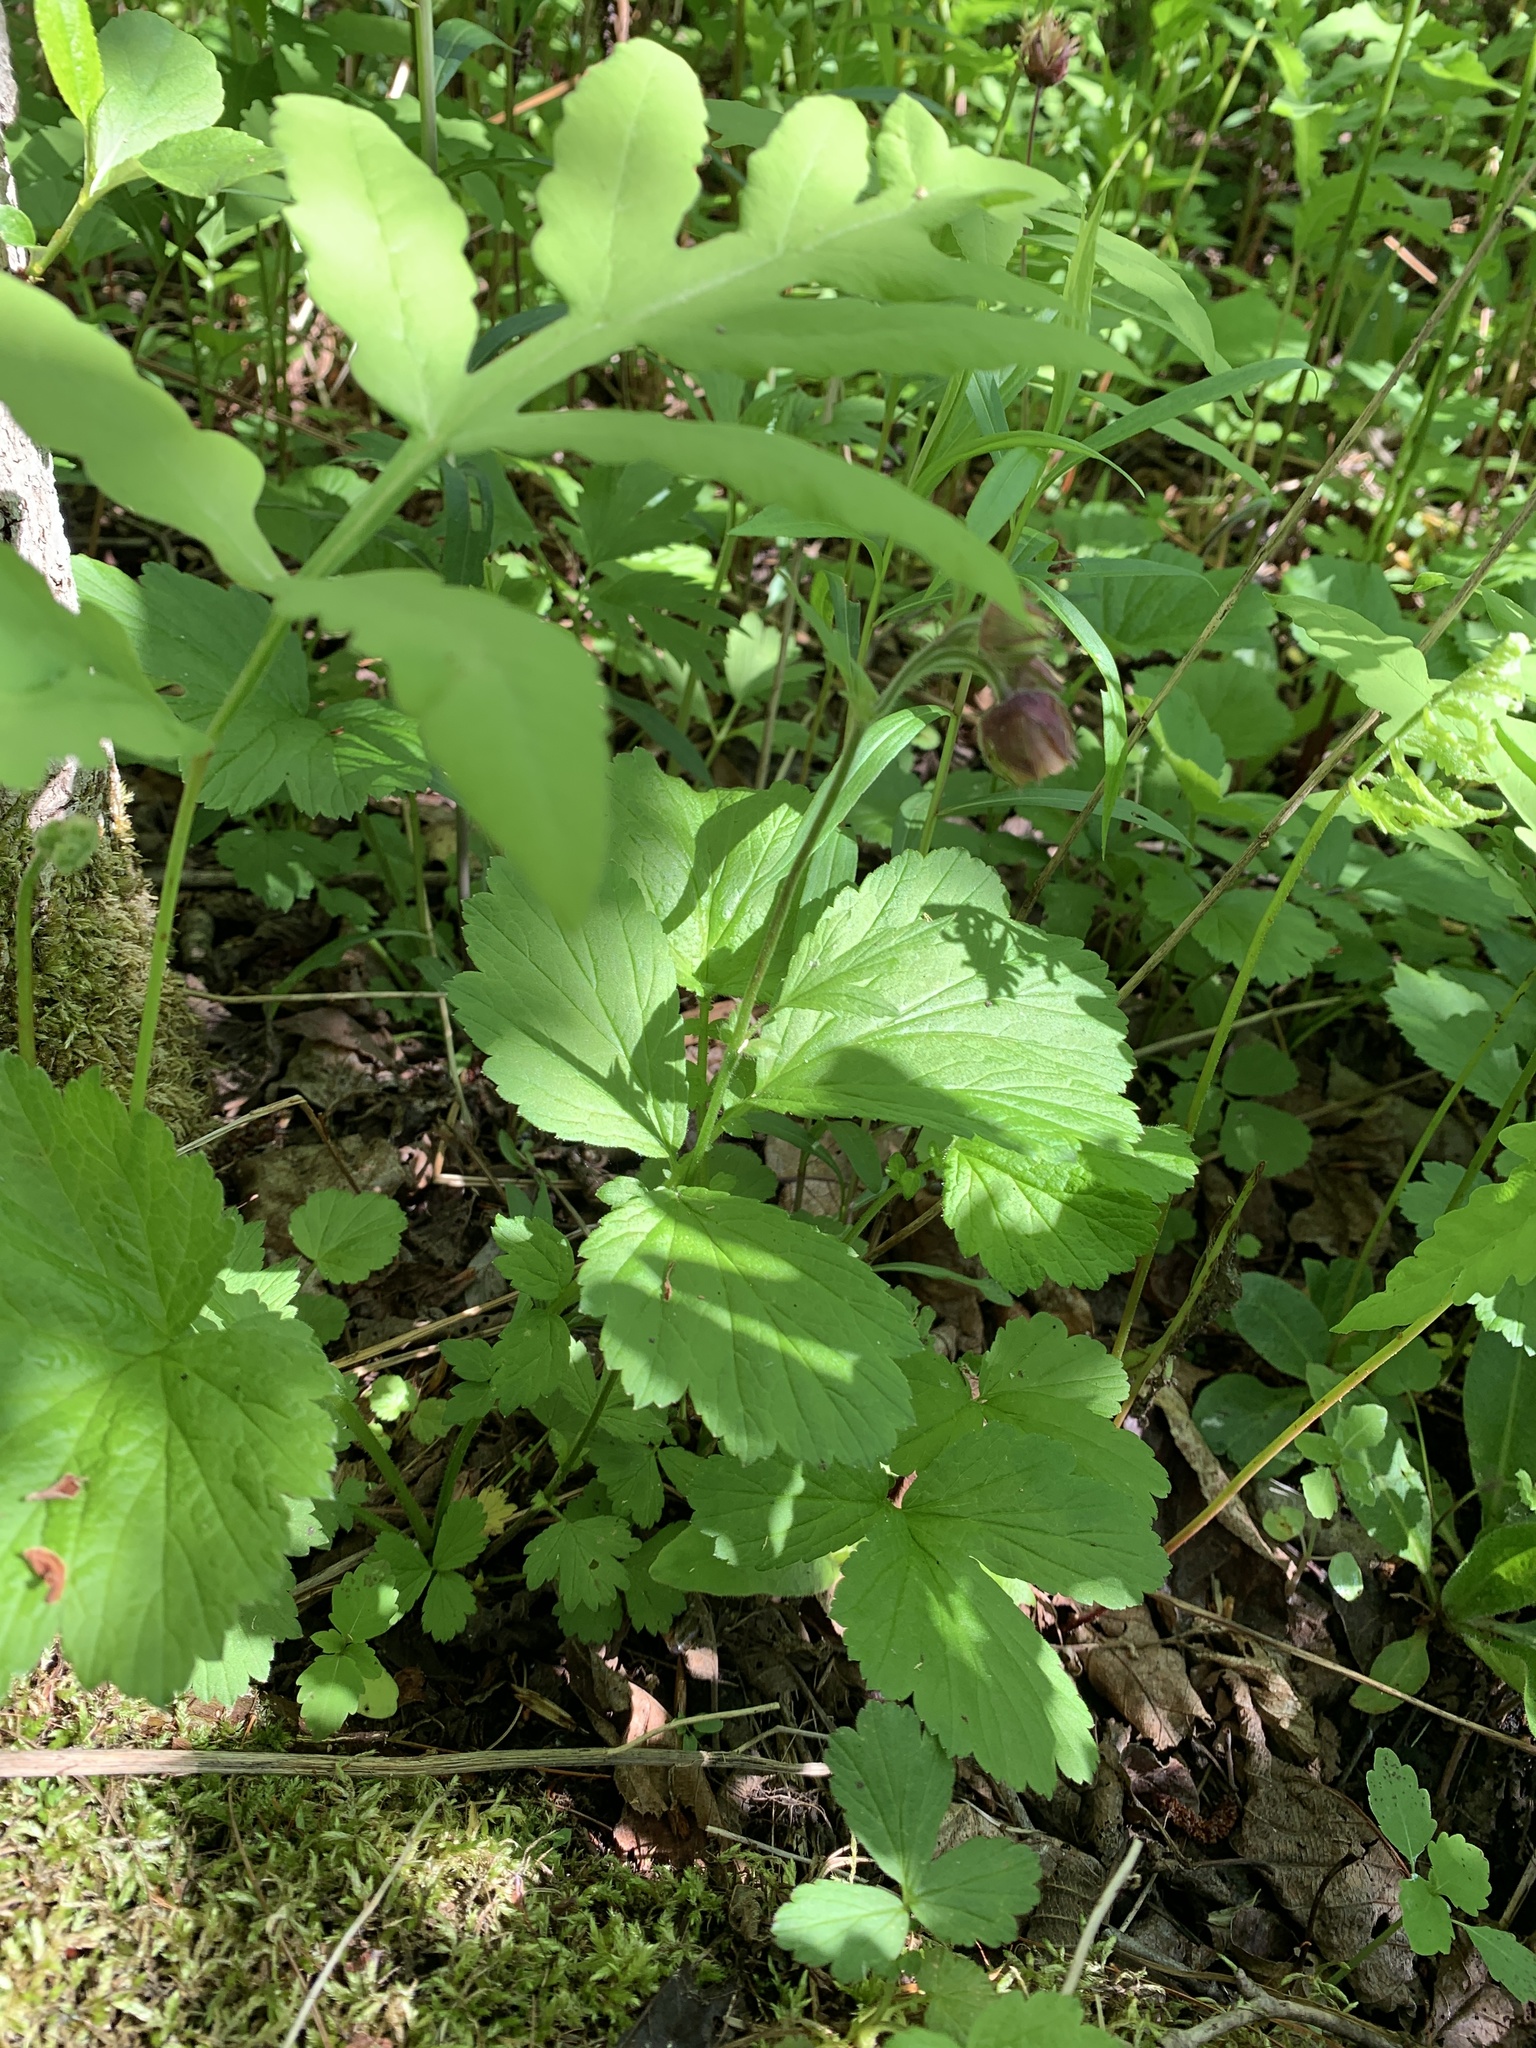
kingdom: Plantae
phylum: Tracheophyta
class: Magnoliopsida
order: Rosales
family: Rosaceae
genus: Geum
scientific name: Geum rivale
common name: Water avens
